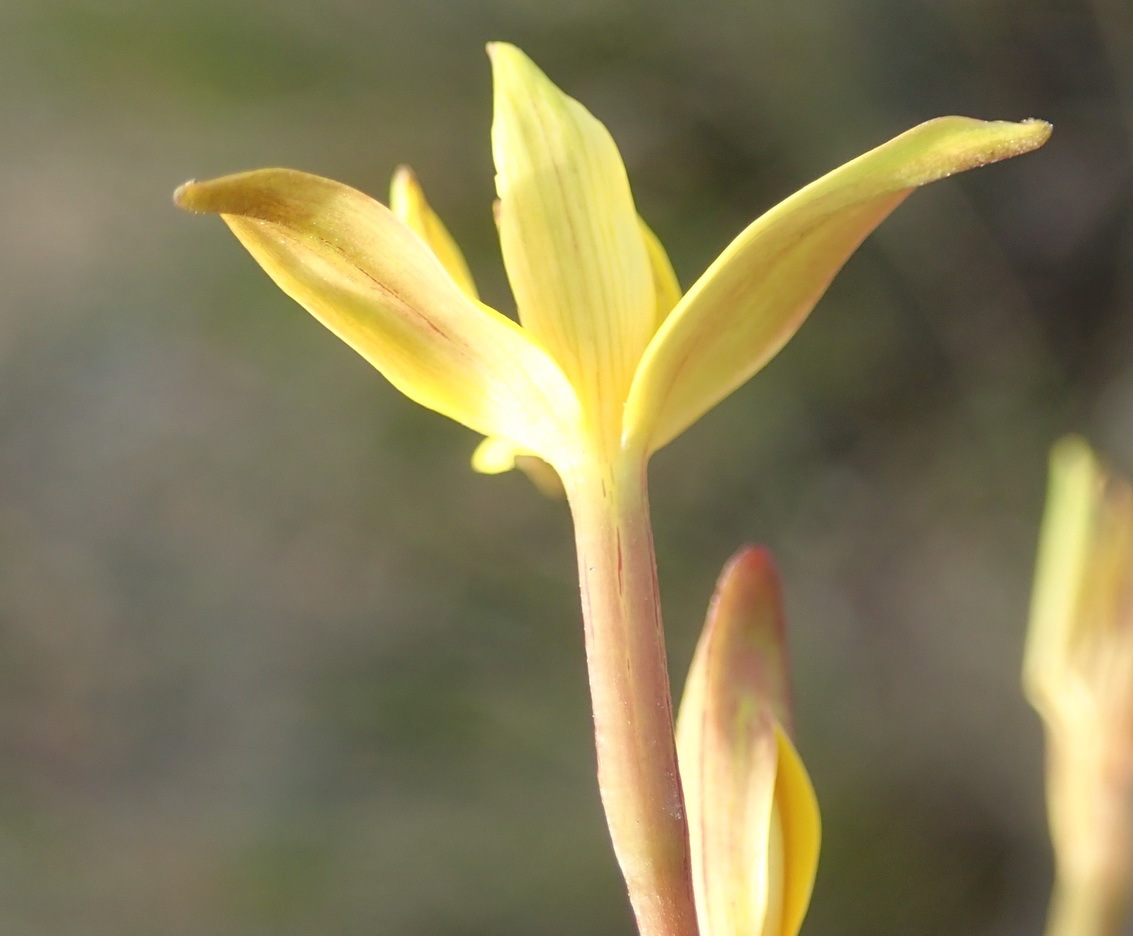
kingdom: Plantae
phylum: Tracheophyta
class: Liliopsida
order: Asparagales
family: Tecophilaeaceae
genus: Cyanella
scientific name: Cyanella lutea
